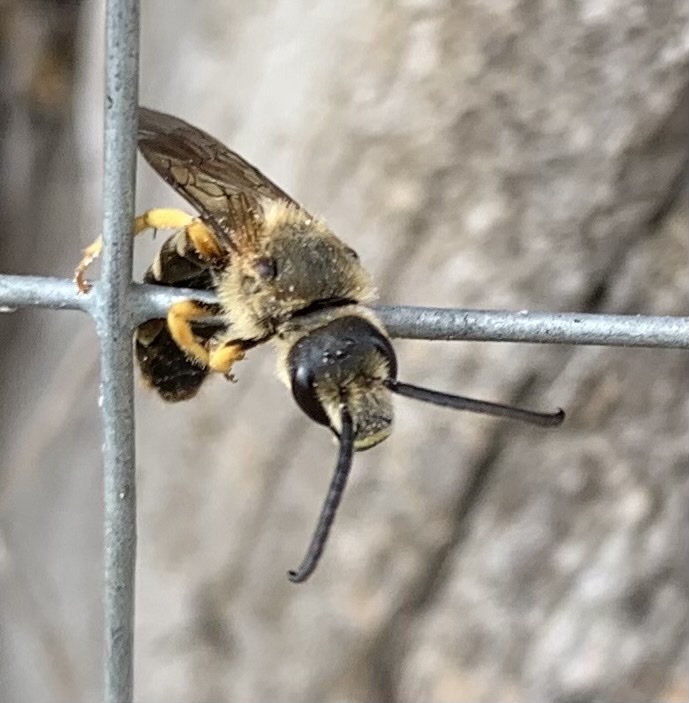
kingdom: Animalia
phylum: Arthropoda
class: Insecta
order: Hymenoptera
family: Halictidae
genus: Halictus
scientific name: Halictus scabiosae
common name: Great banded furrow bee
